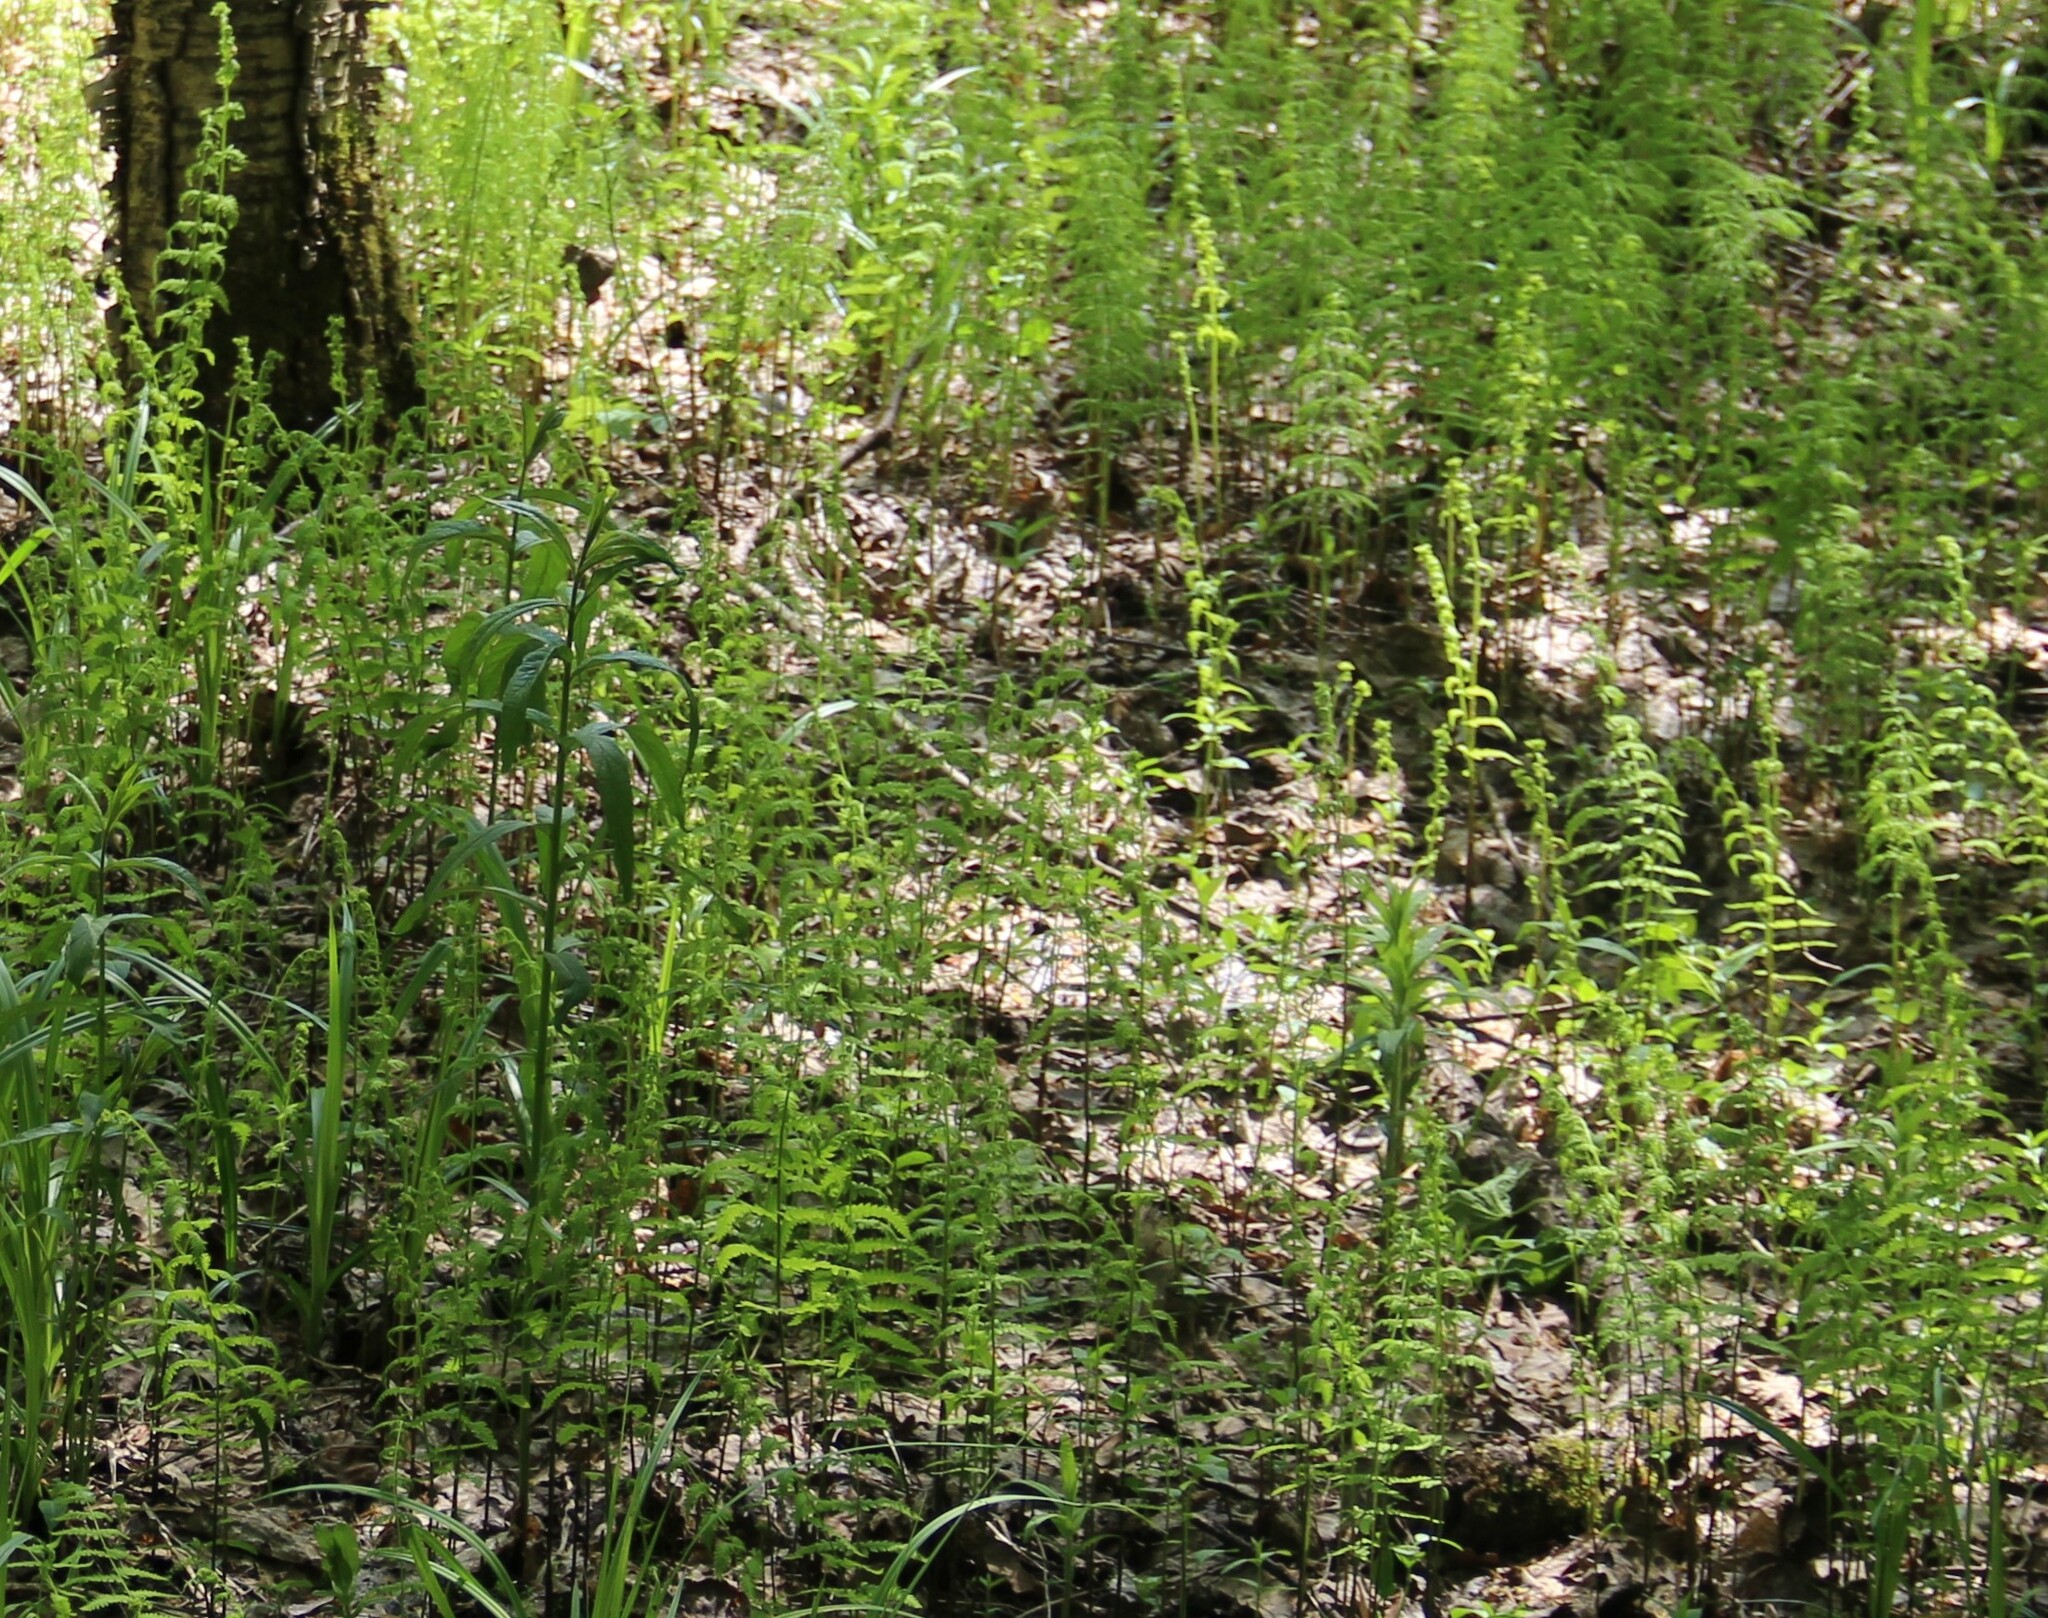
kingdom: Plantae
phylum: Tracheophyta
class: Polypodiopsida
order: Polypodiales
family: Thelypteridaceae
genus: Thelypteris
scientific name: Thelypteris palustris
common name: Marsh fern
